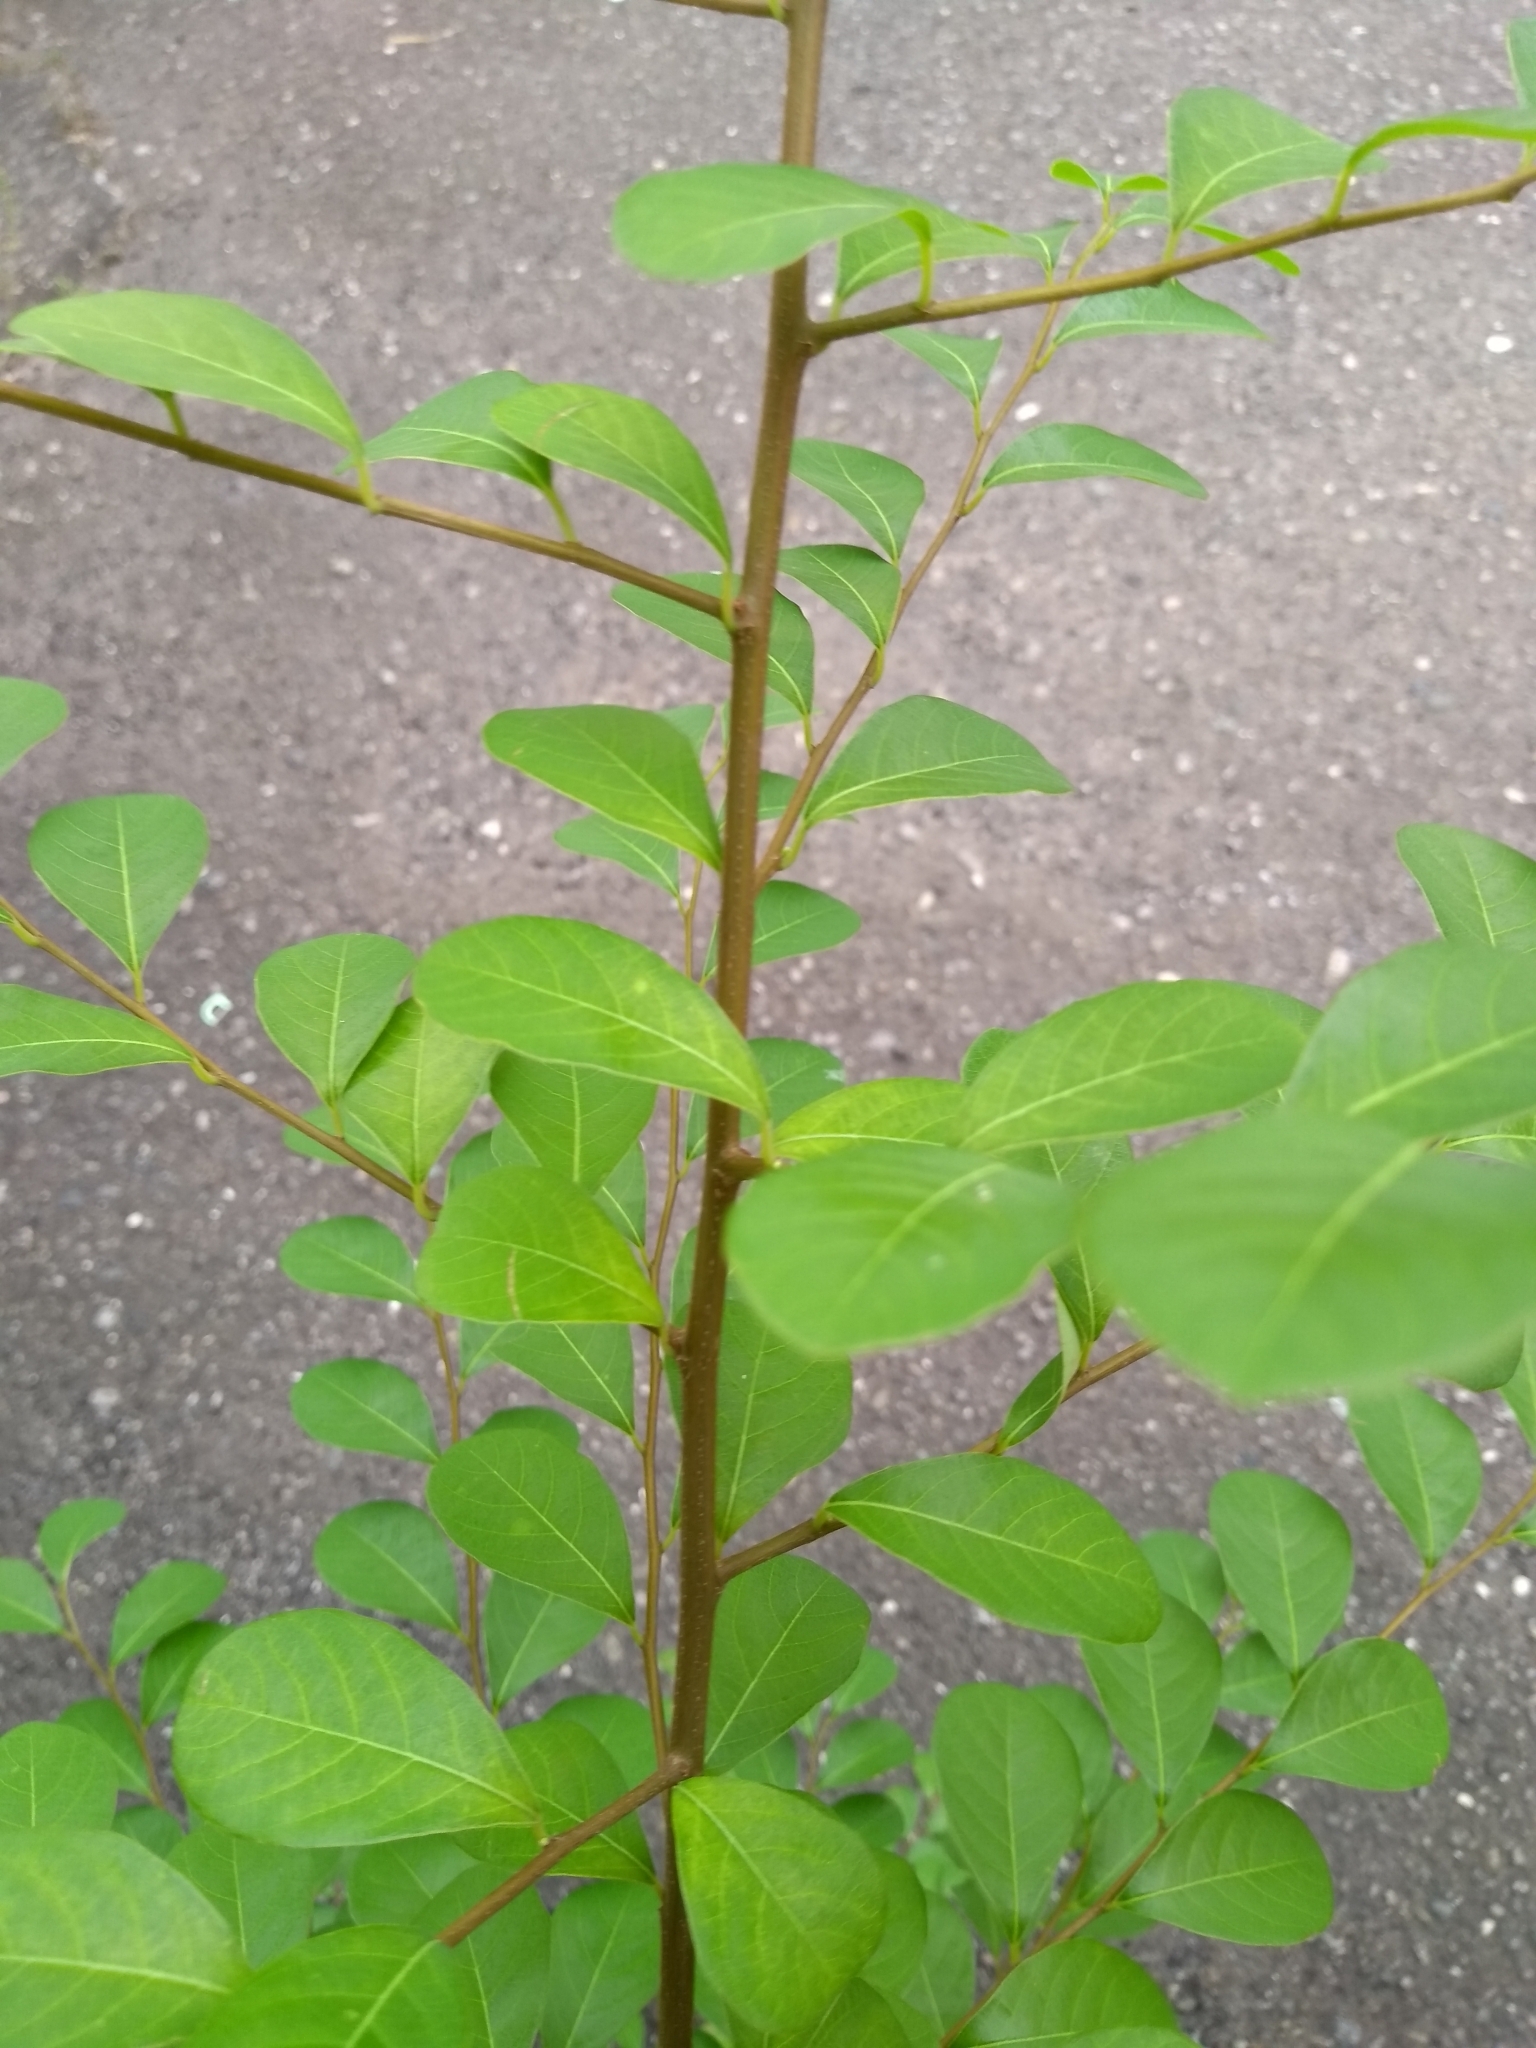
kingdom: Plantae
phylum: Tracheophyta
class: Magnoliopsida
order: Malpighiales
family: Phyllanthaceae
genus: Flueggea
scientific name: Flueggea virosa
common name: Common bushweed
